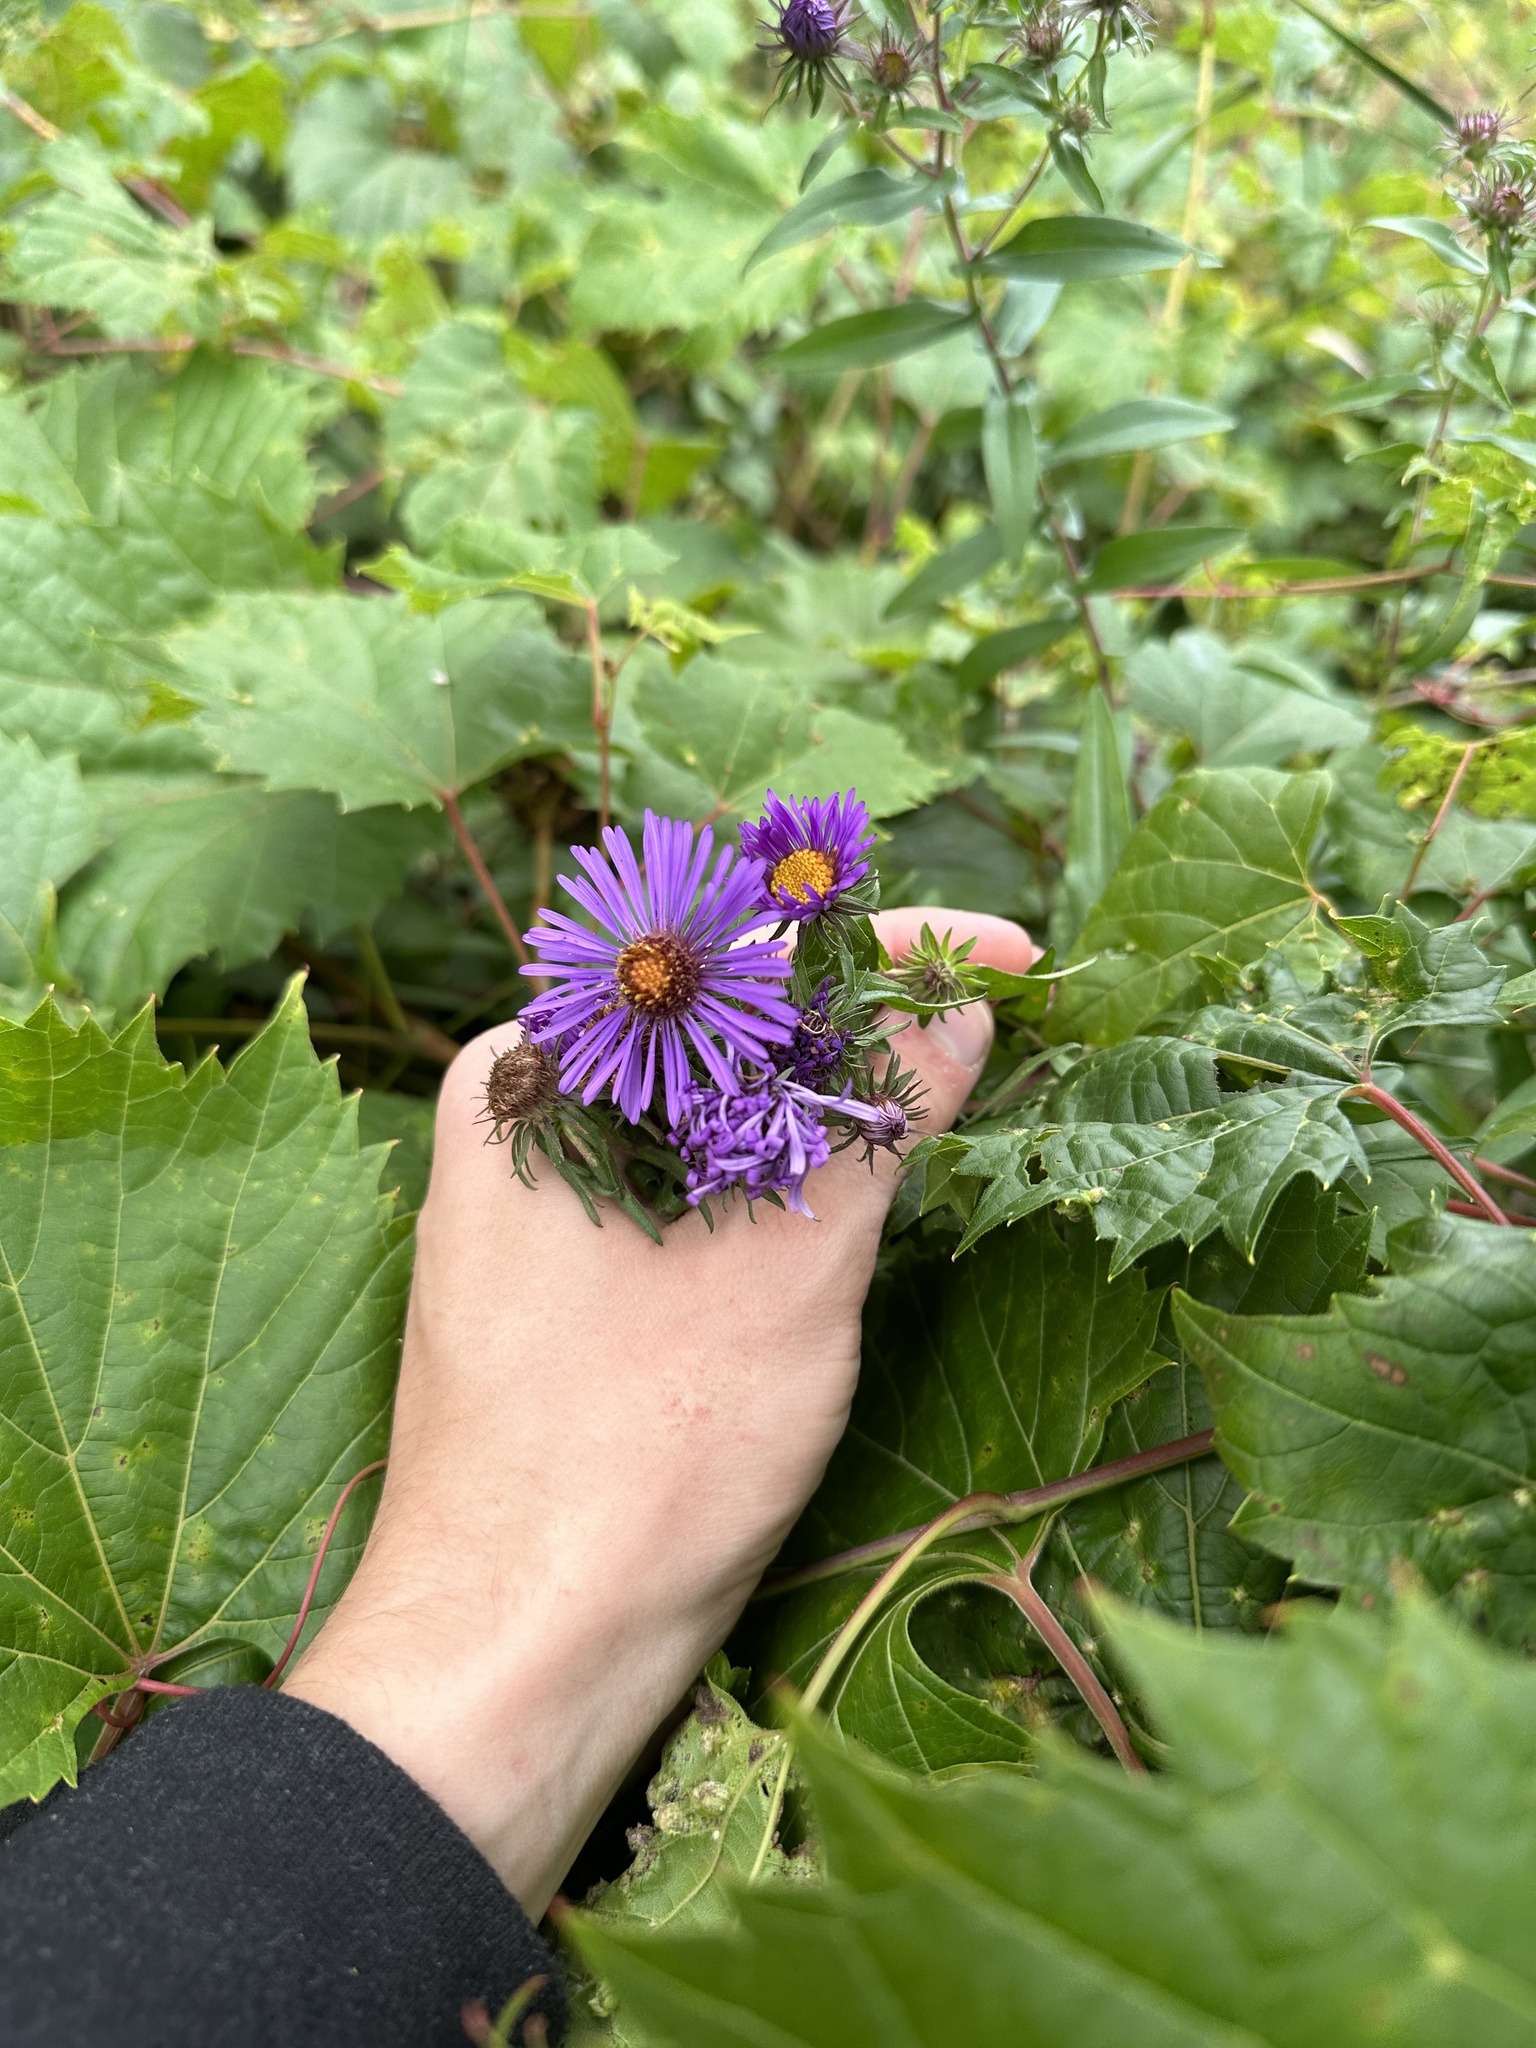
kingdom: Plantae
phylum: Tracheophyta
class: Magnoliopsida
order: Asterales
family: Asteraceae
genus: Symphyotrichum
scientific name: Symphyotrichum novae-angliae
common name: Michaelmas daisy
